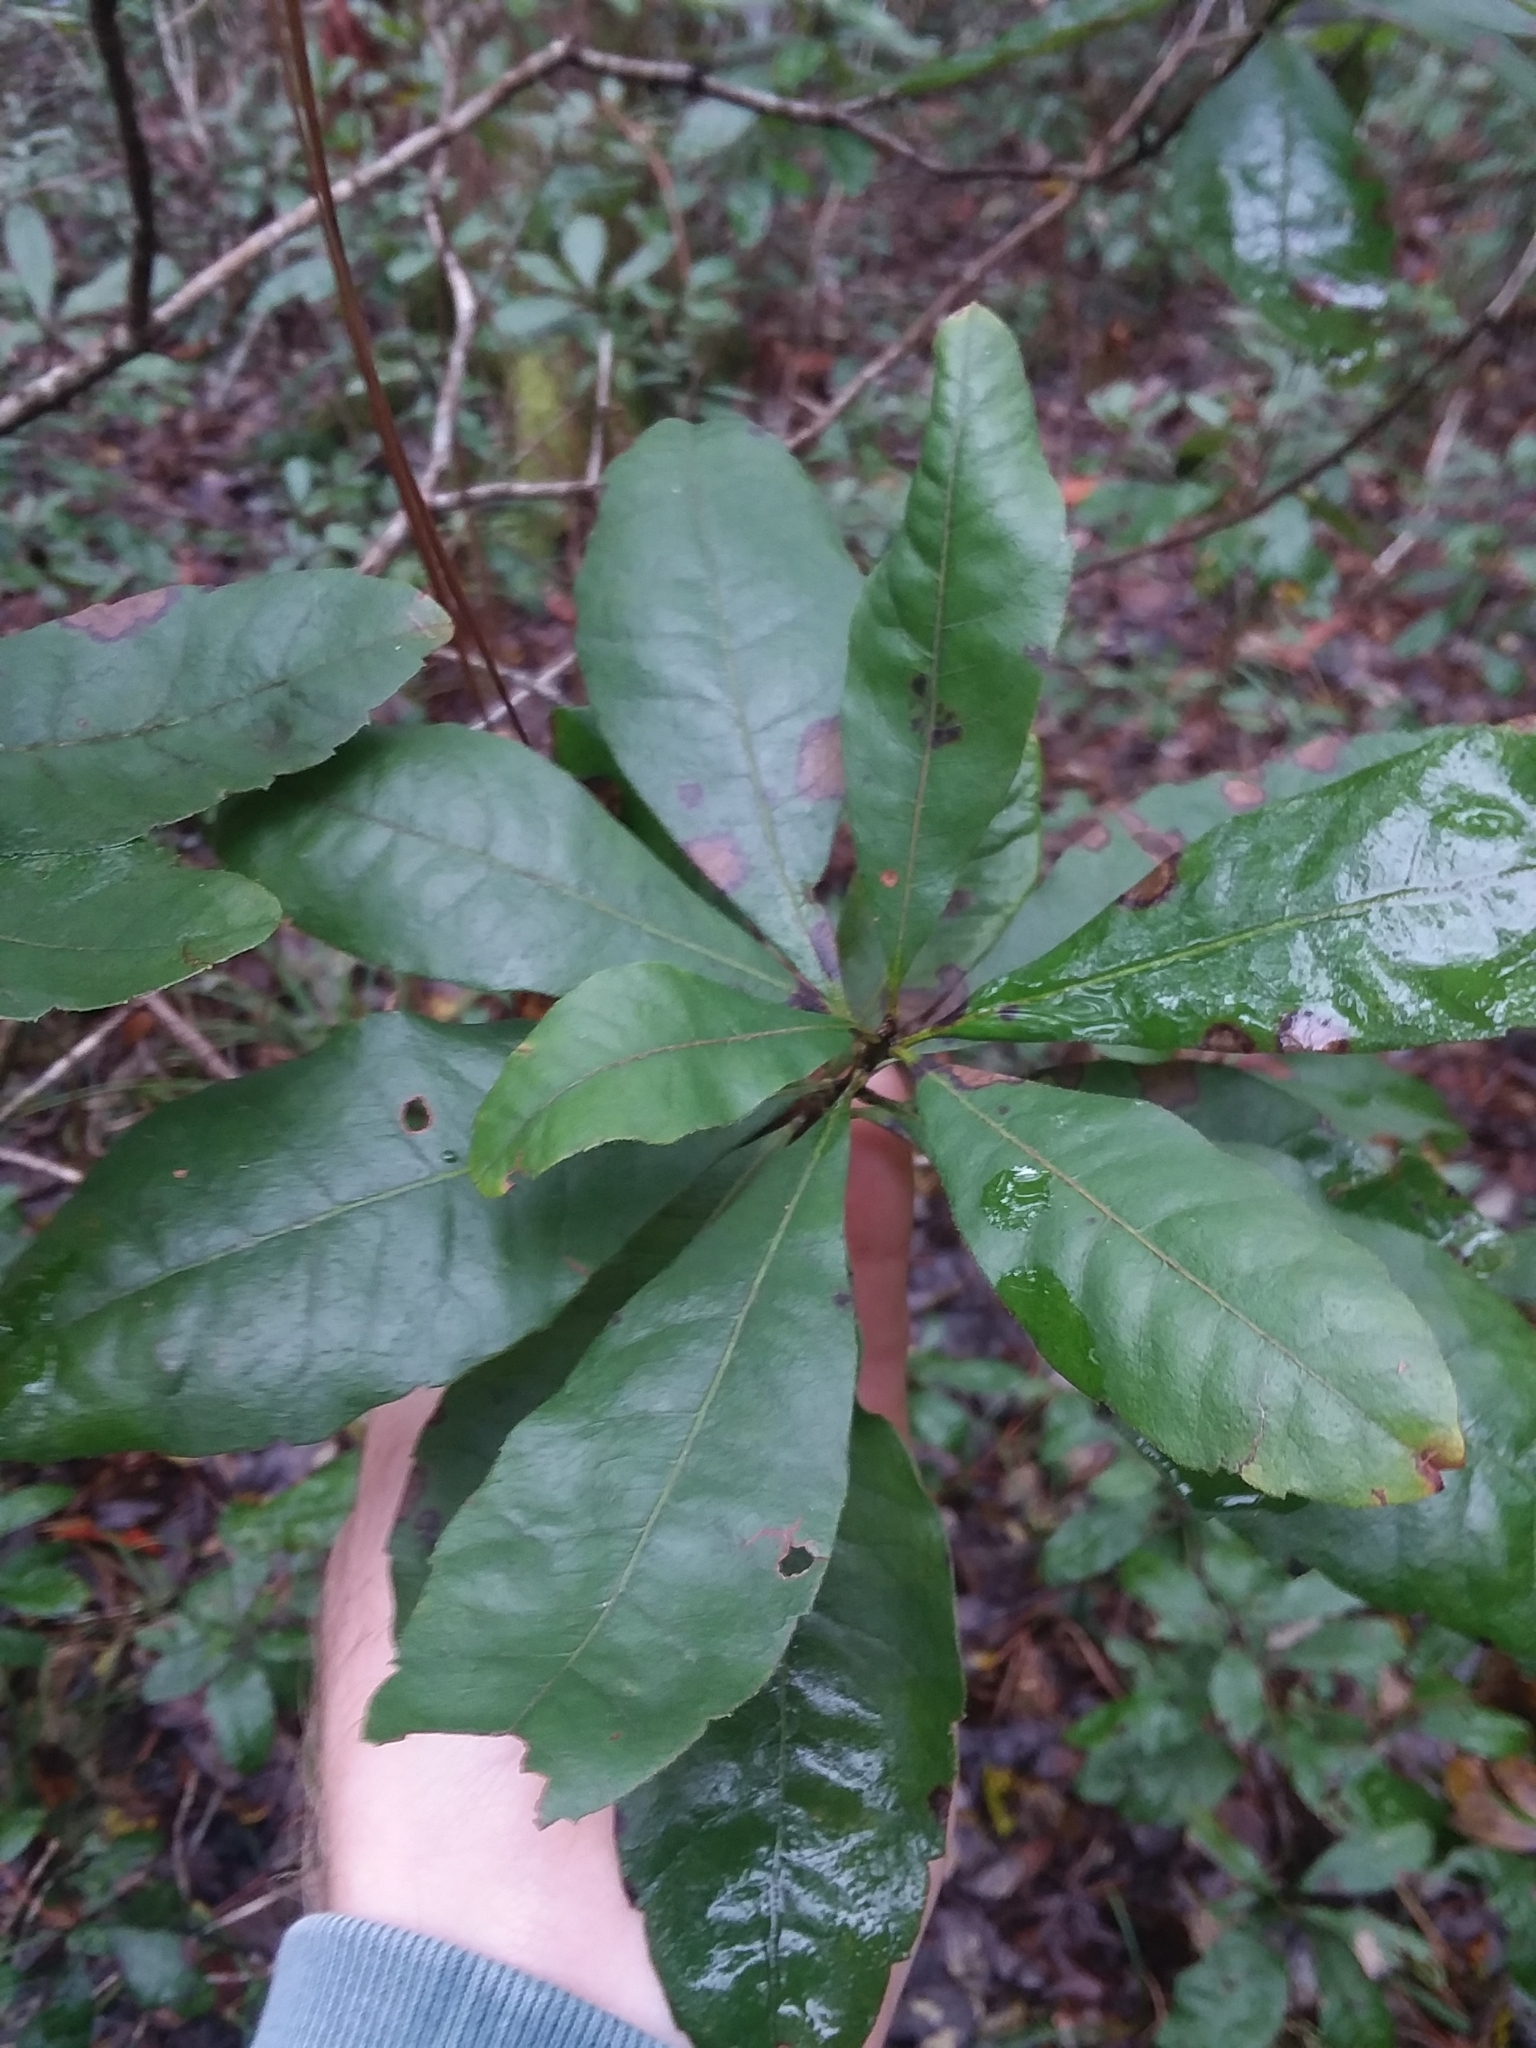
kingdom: Plantae
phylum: Tracheophyta
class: Magnoliopsida
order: Fagales
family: Myricaceae
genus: Morella
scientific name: Morella caroliniensis
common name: Evergreen bayberry
